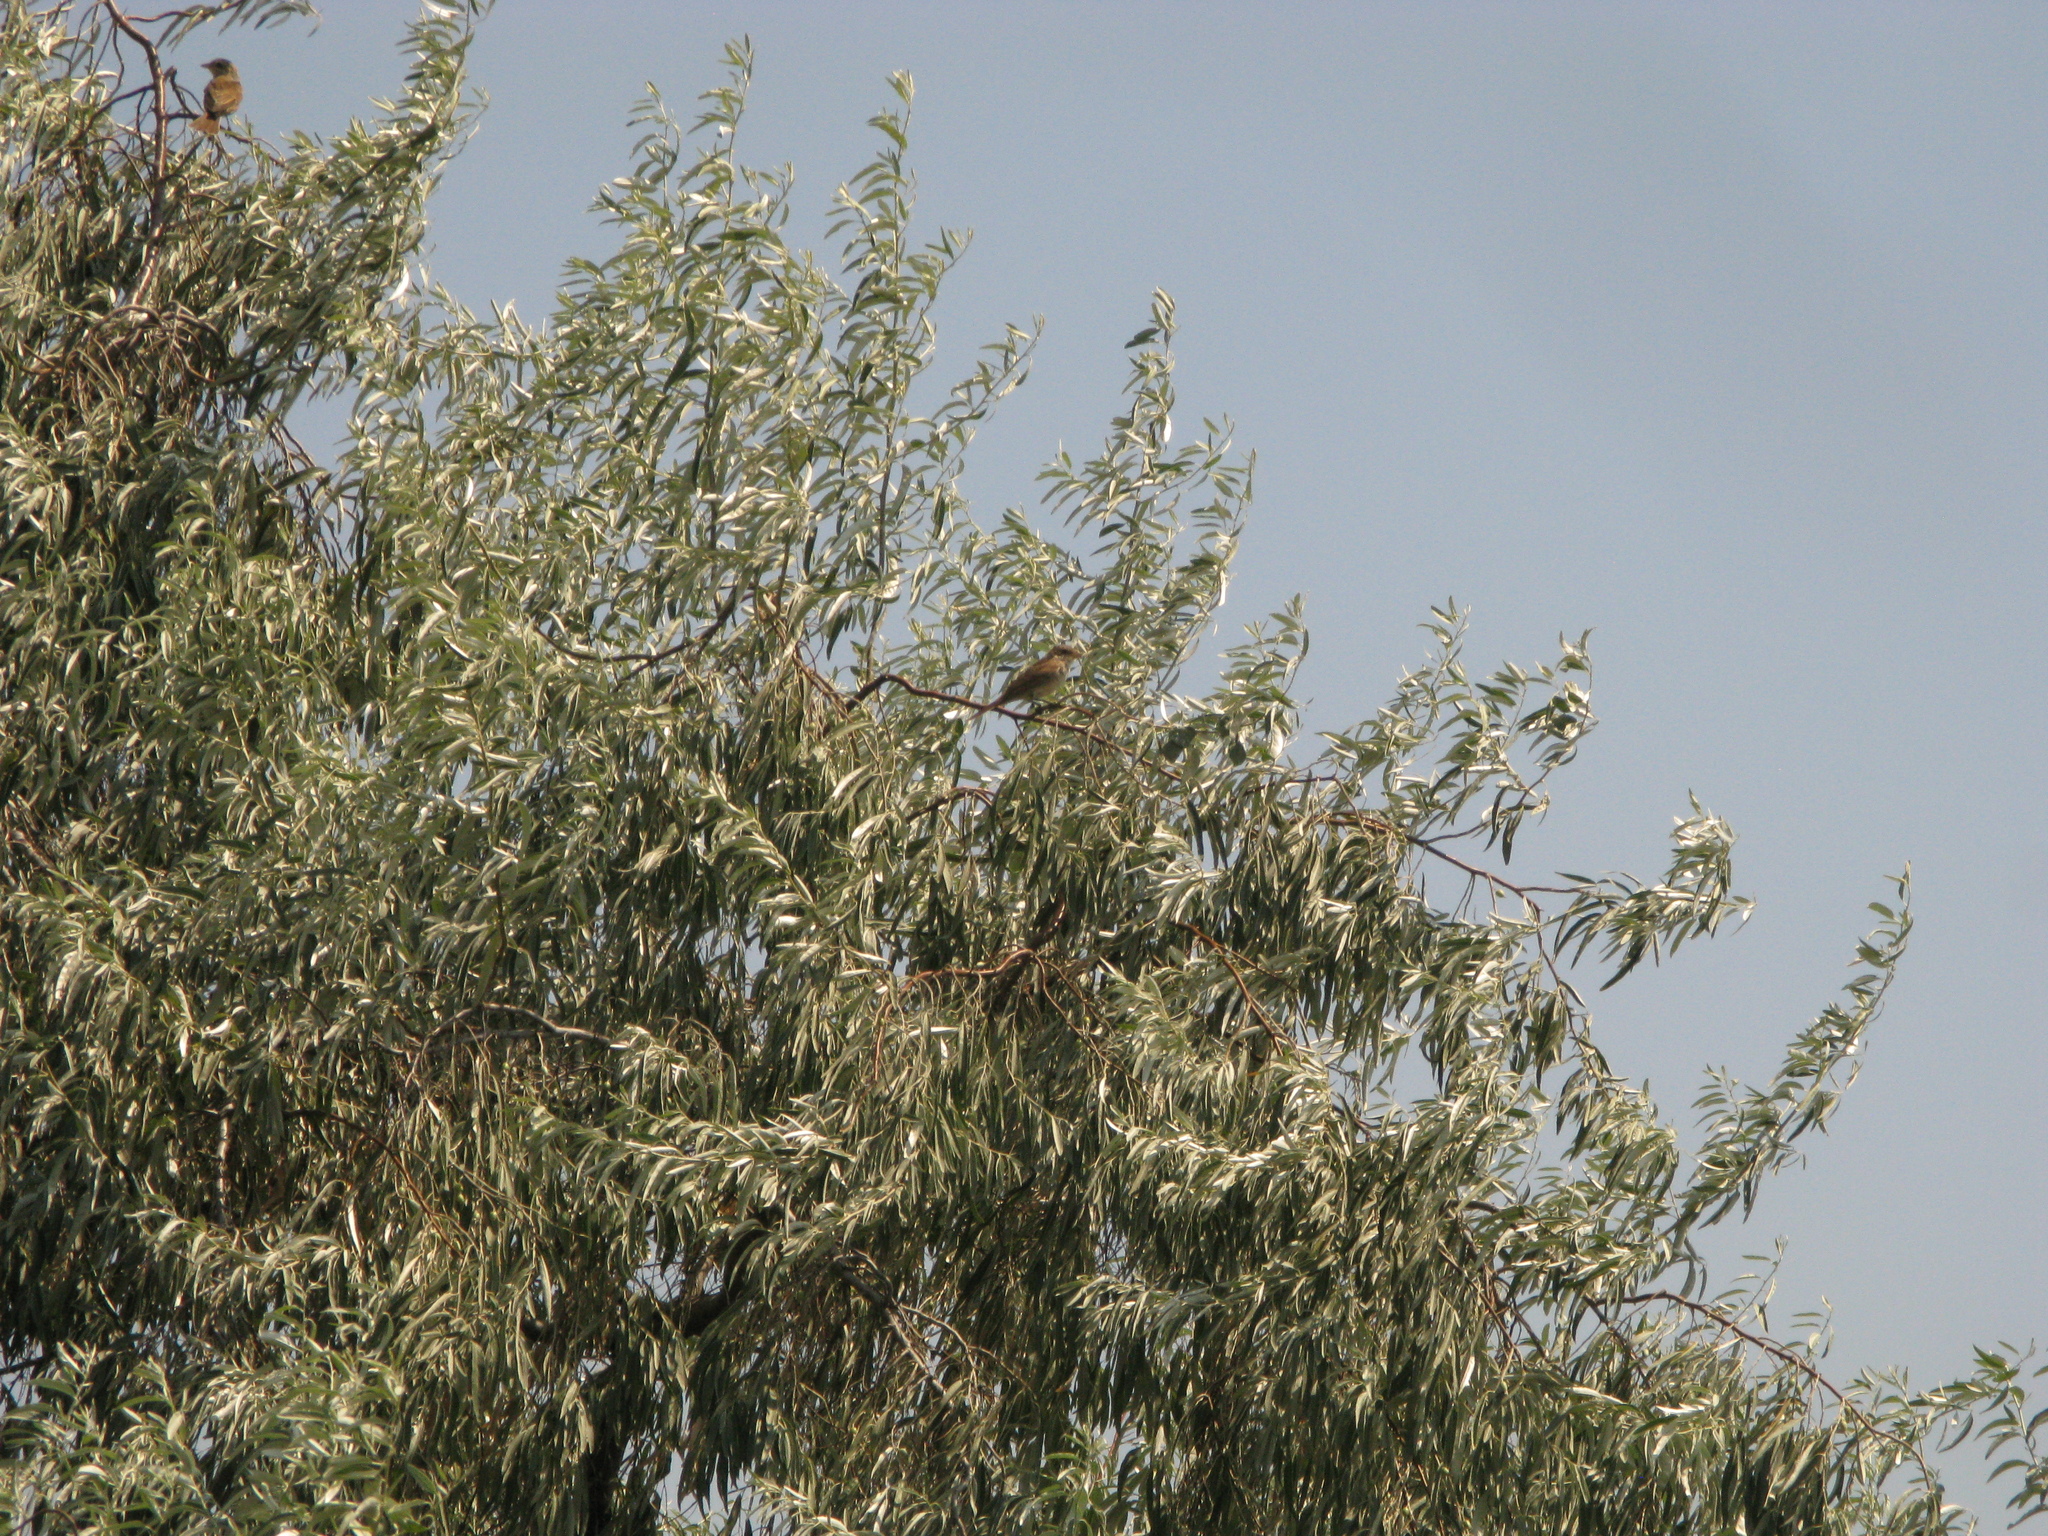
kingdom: Animalia
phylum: Chordata
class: Aves
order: Passeriformes
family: Laniidae
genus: Lanius
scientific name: Lanius collurio
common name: Red-backed shrike
